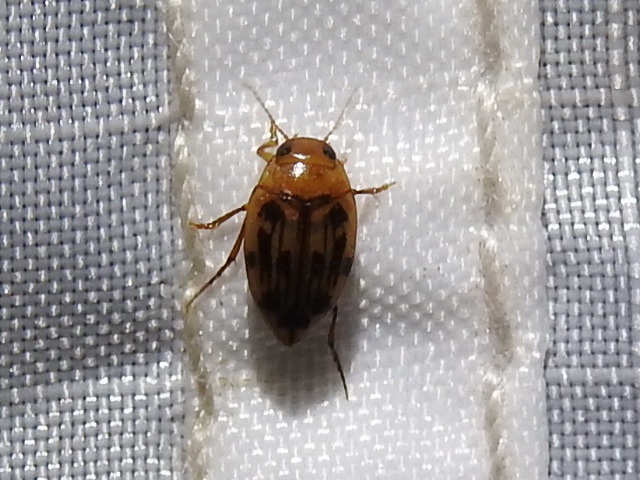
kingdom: Animalia
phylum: Arthropoda
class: Insecta
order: Coleoptera
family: Dytiscidae
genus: Neoporus
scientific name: Neoporus dimidiatus
